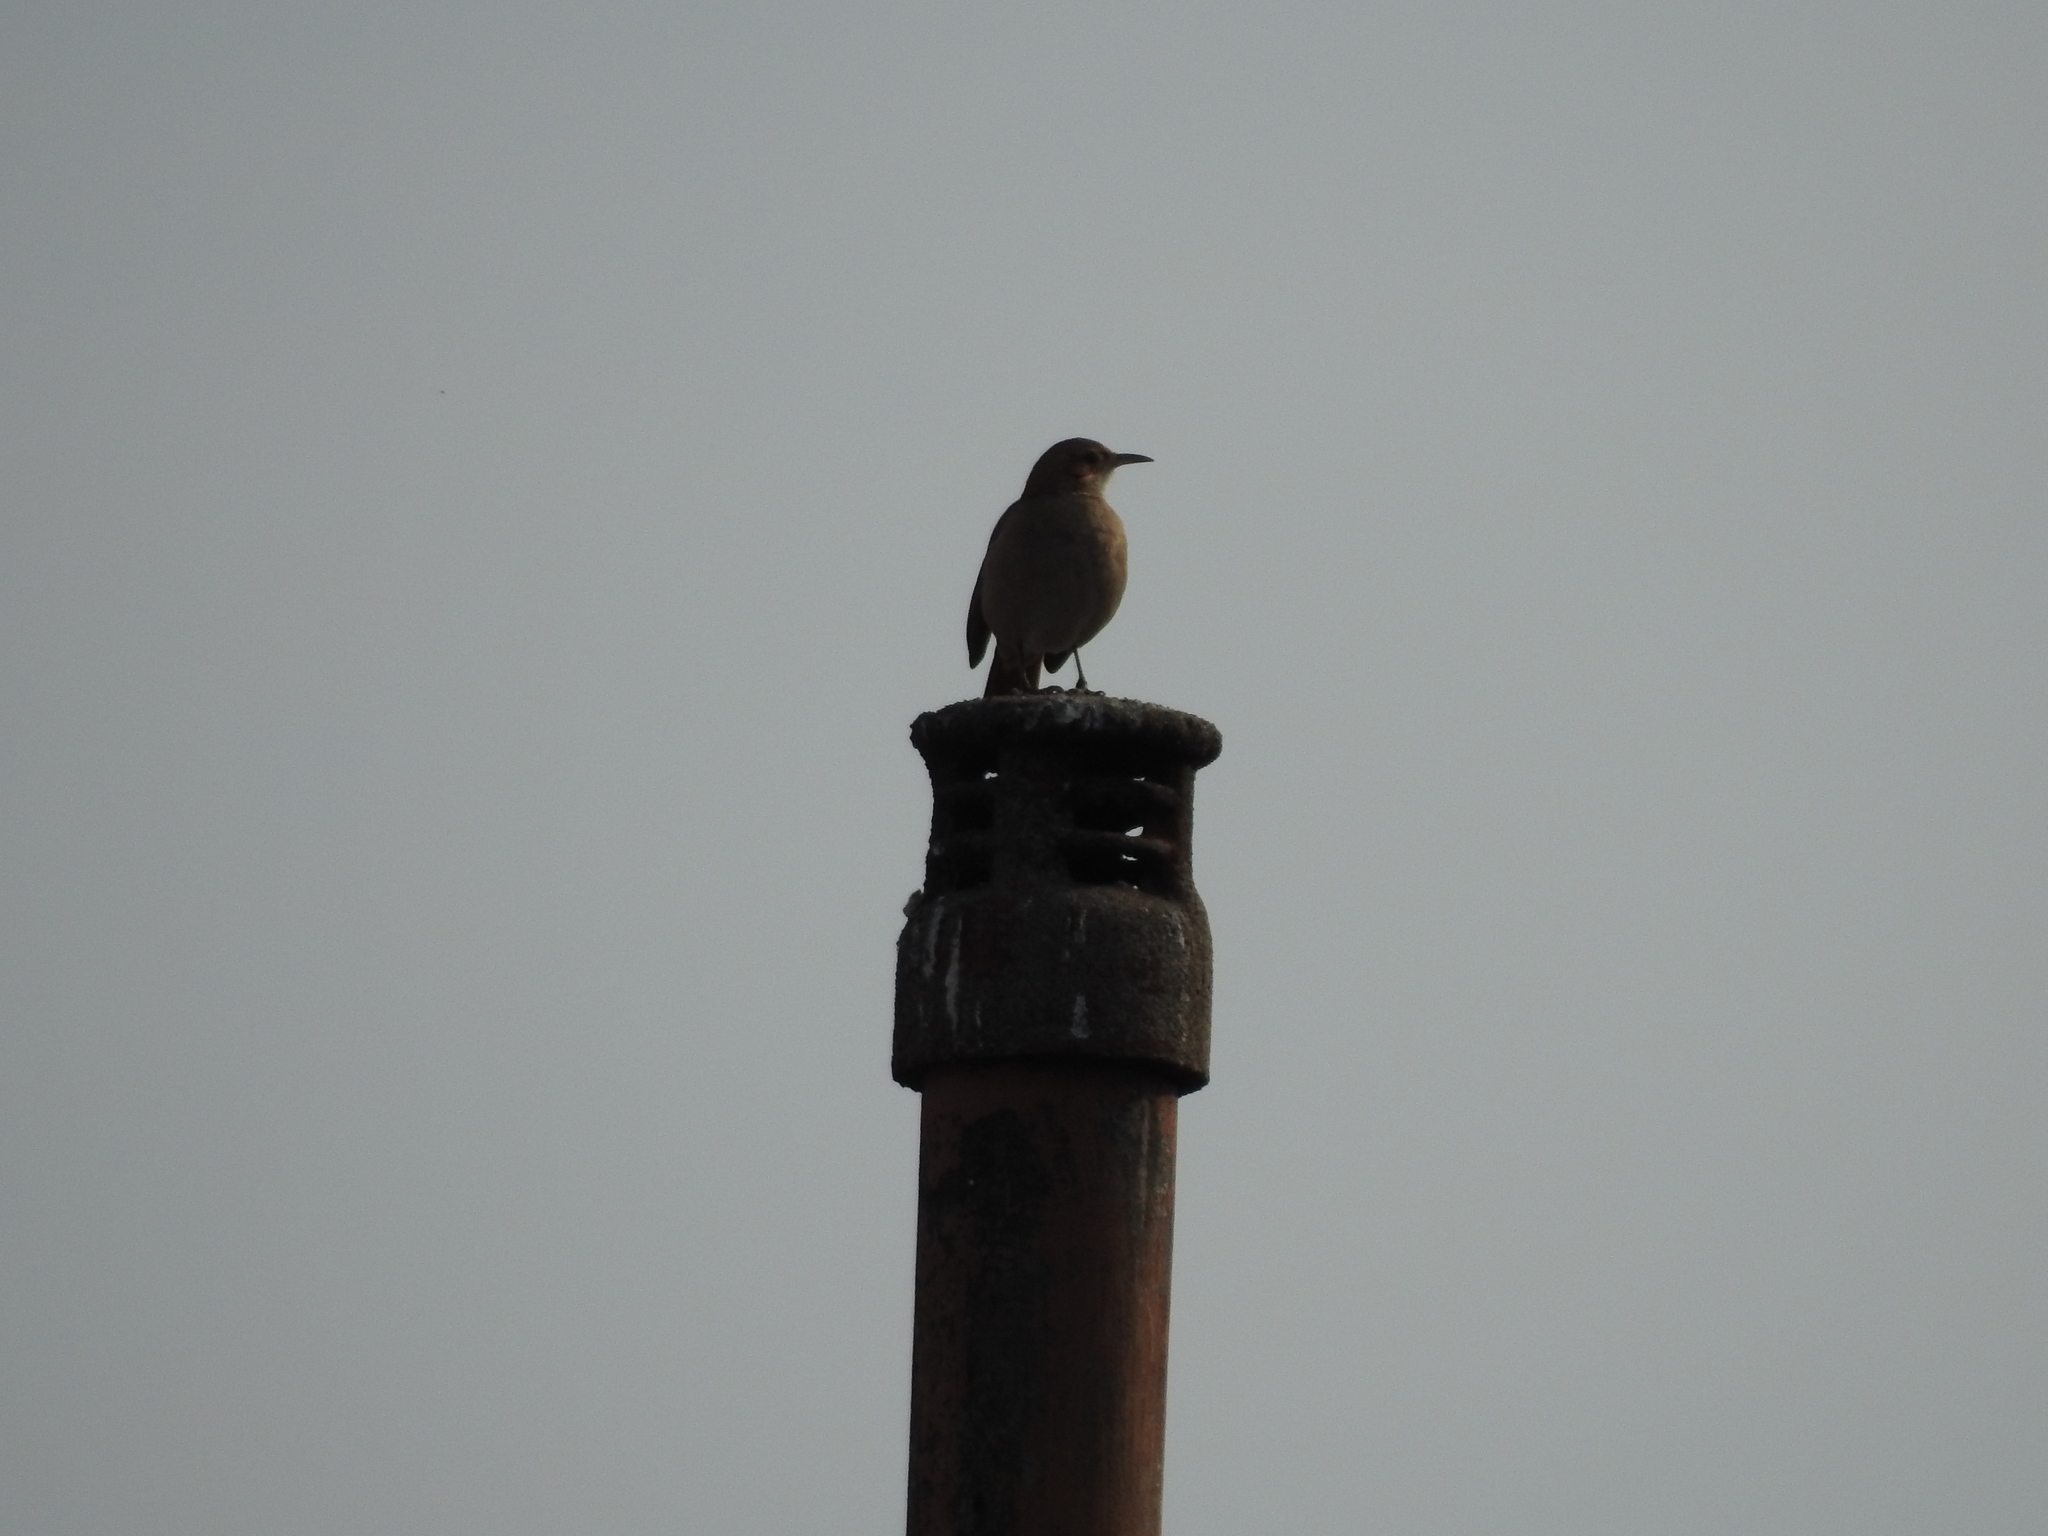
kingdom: Animalia
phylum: Chordata
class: Aves
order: Passeriformes
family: Furnariidae
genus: Furnarius
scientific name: Furnarius rufus
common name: Rufous hornero
